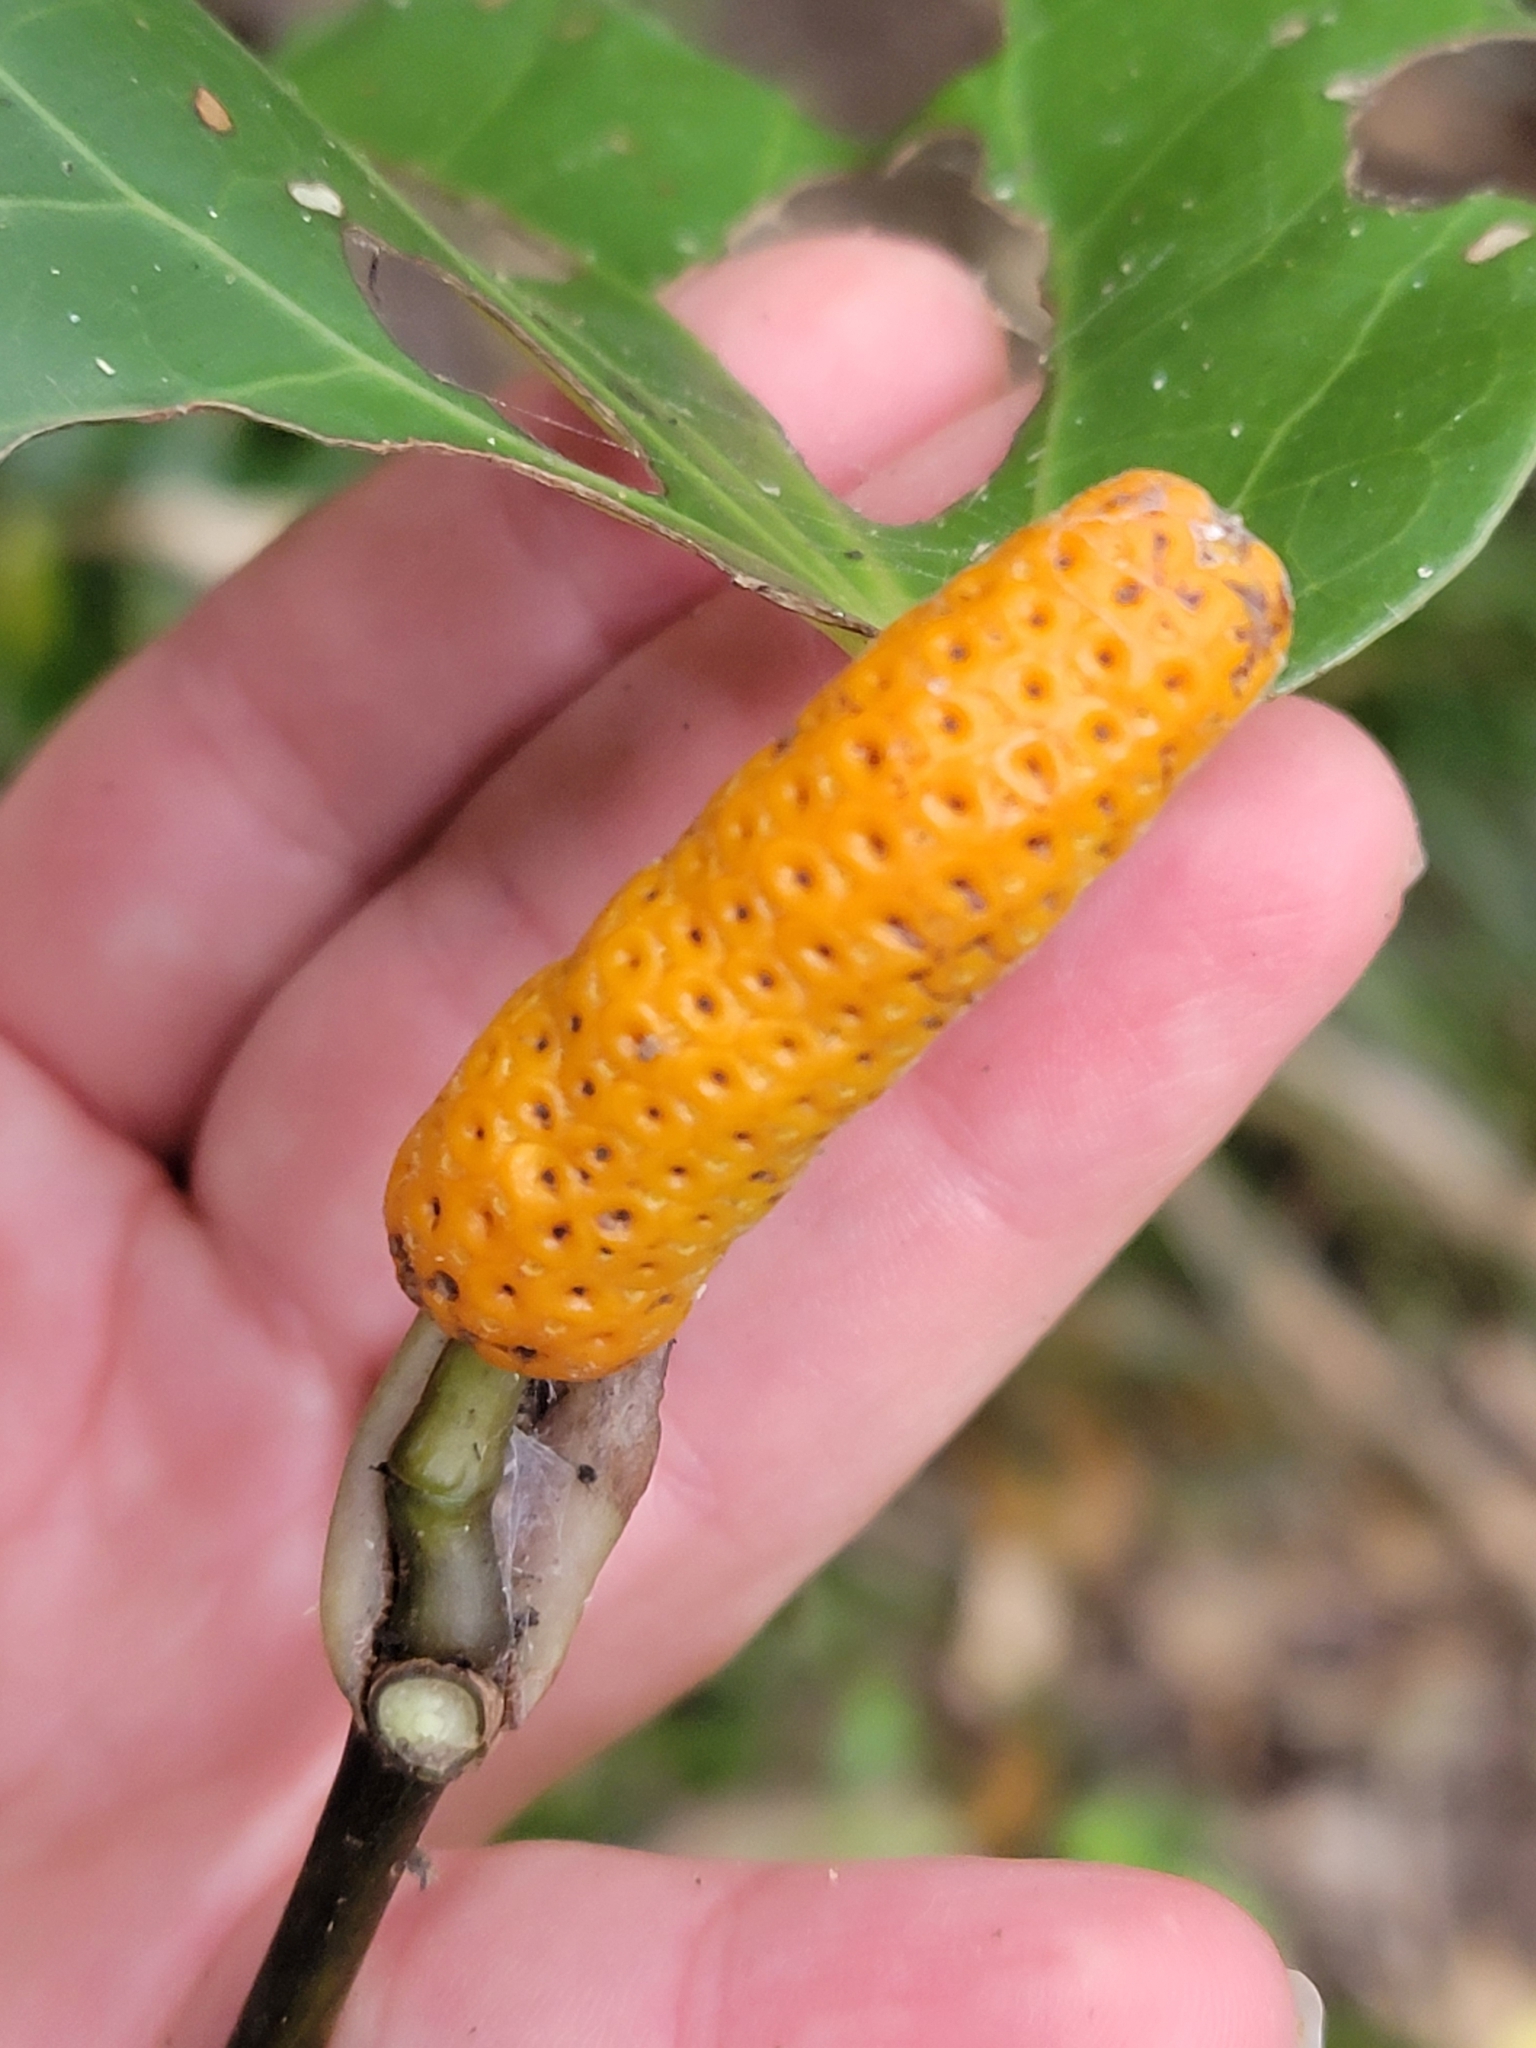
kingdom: Plantae
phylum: Tracheophyta
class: Magnoliopsida
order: Piperales
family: Piperaceae
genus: Macropiper
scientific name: Macropiper excelsum
